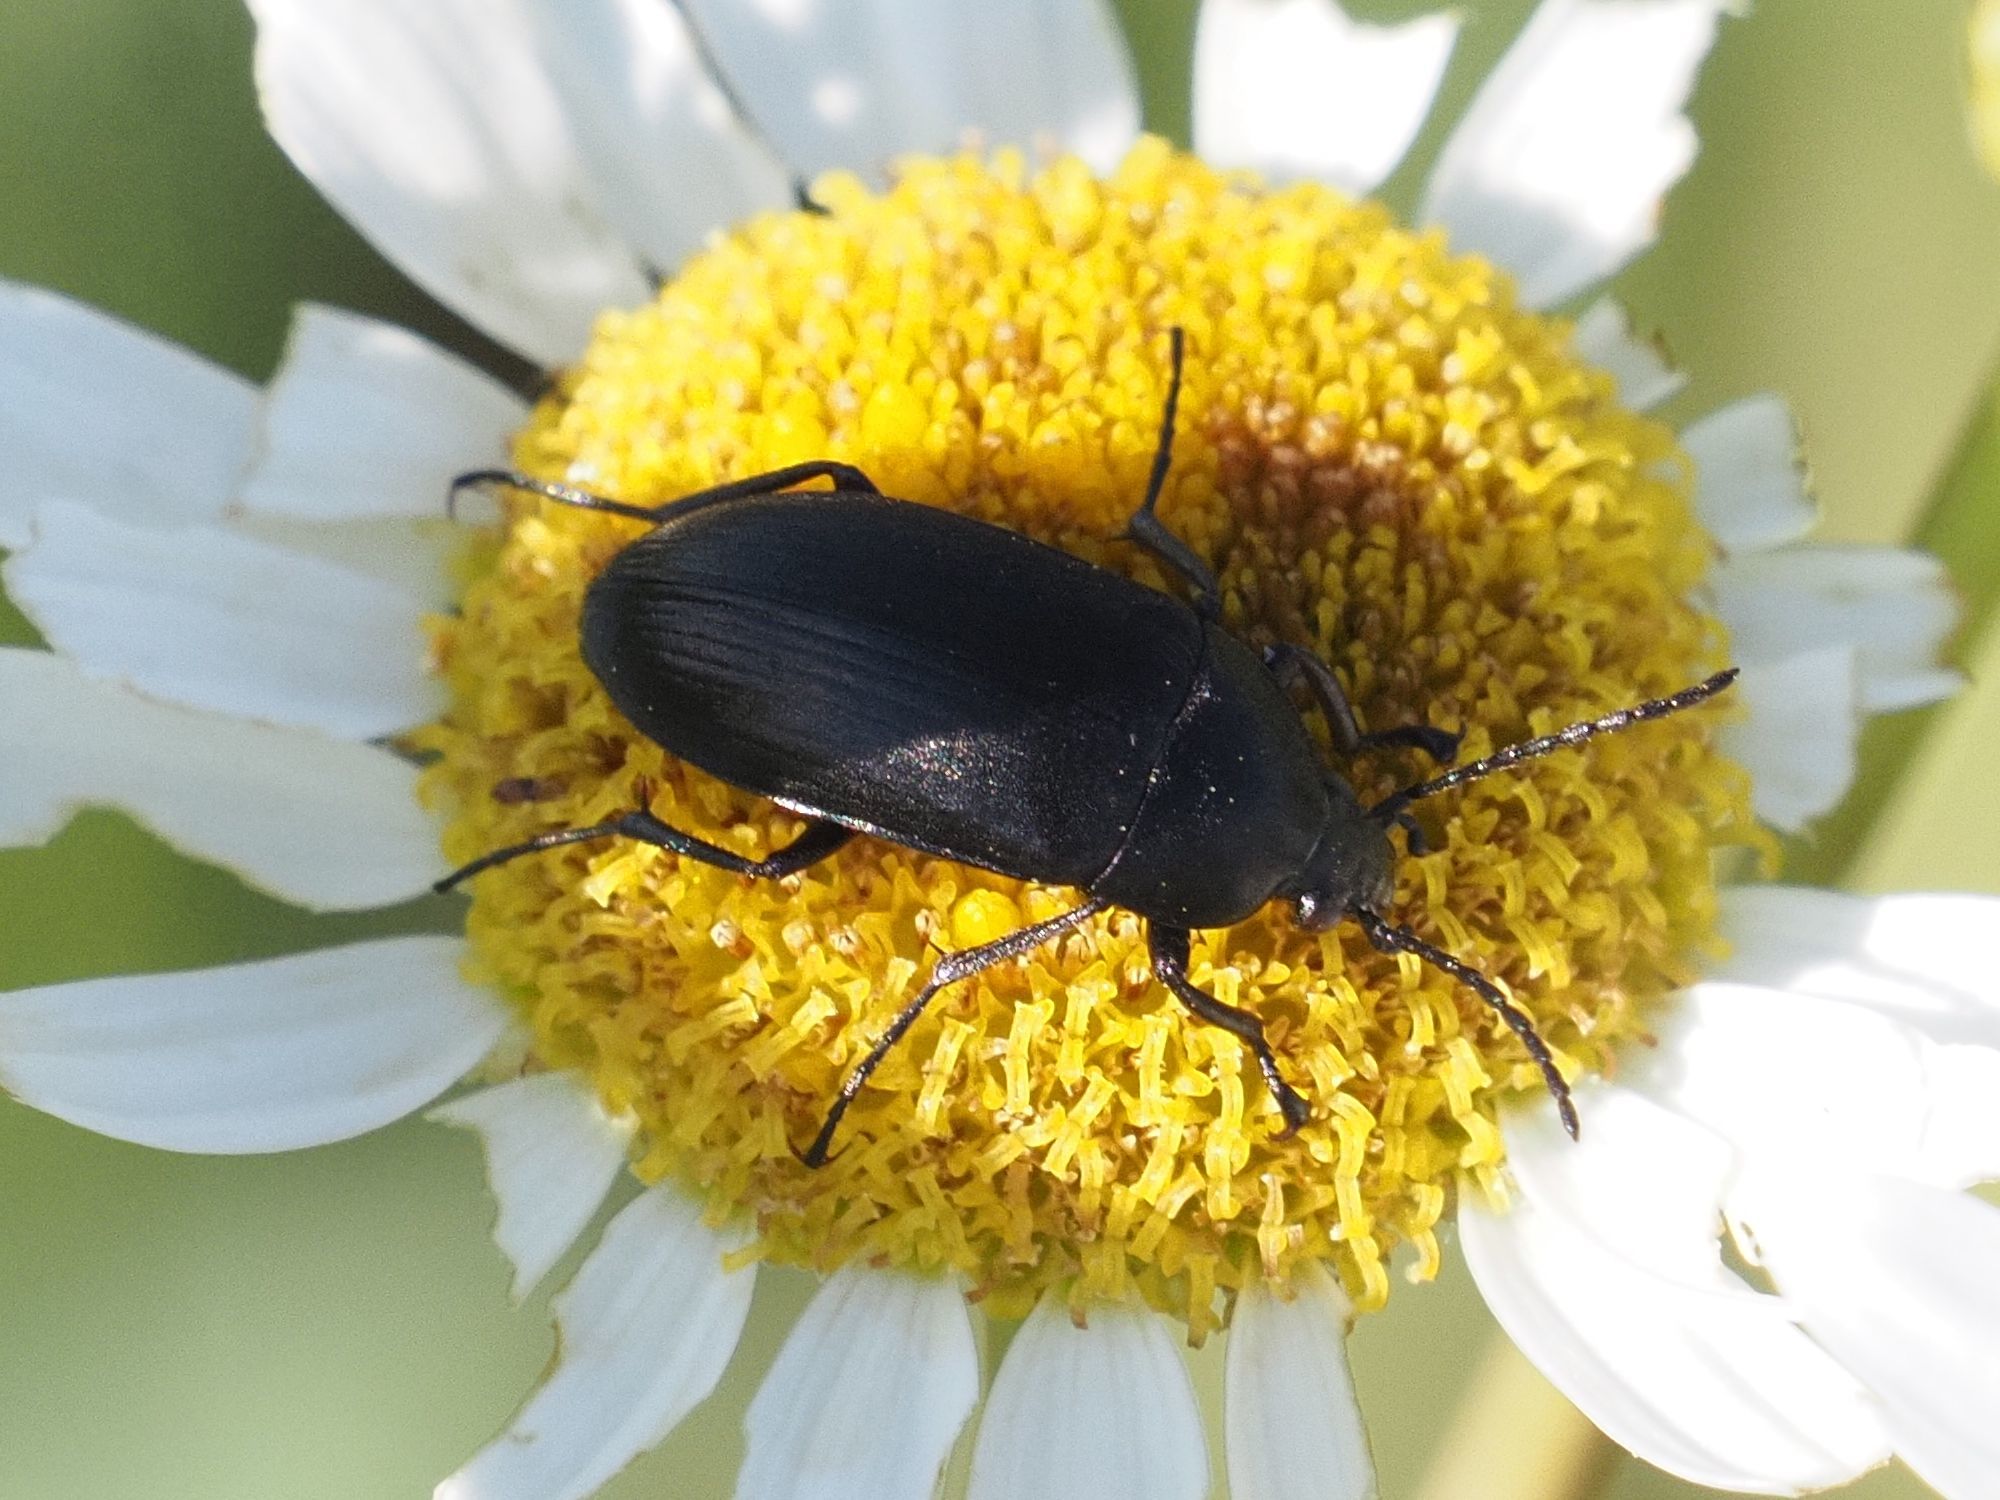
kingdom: Animalia
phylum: Arthropoda
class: Insecta
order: Coleoptera
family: Tenebrionidae
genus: Podonta
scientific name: Podonta nigrita
